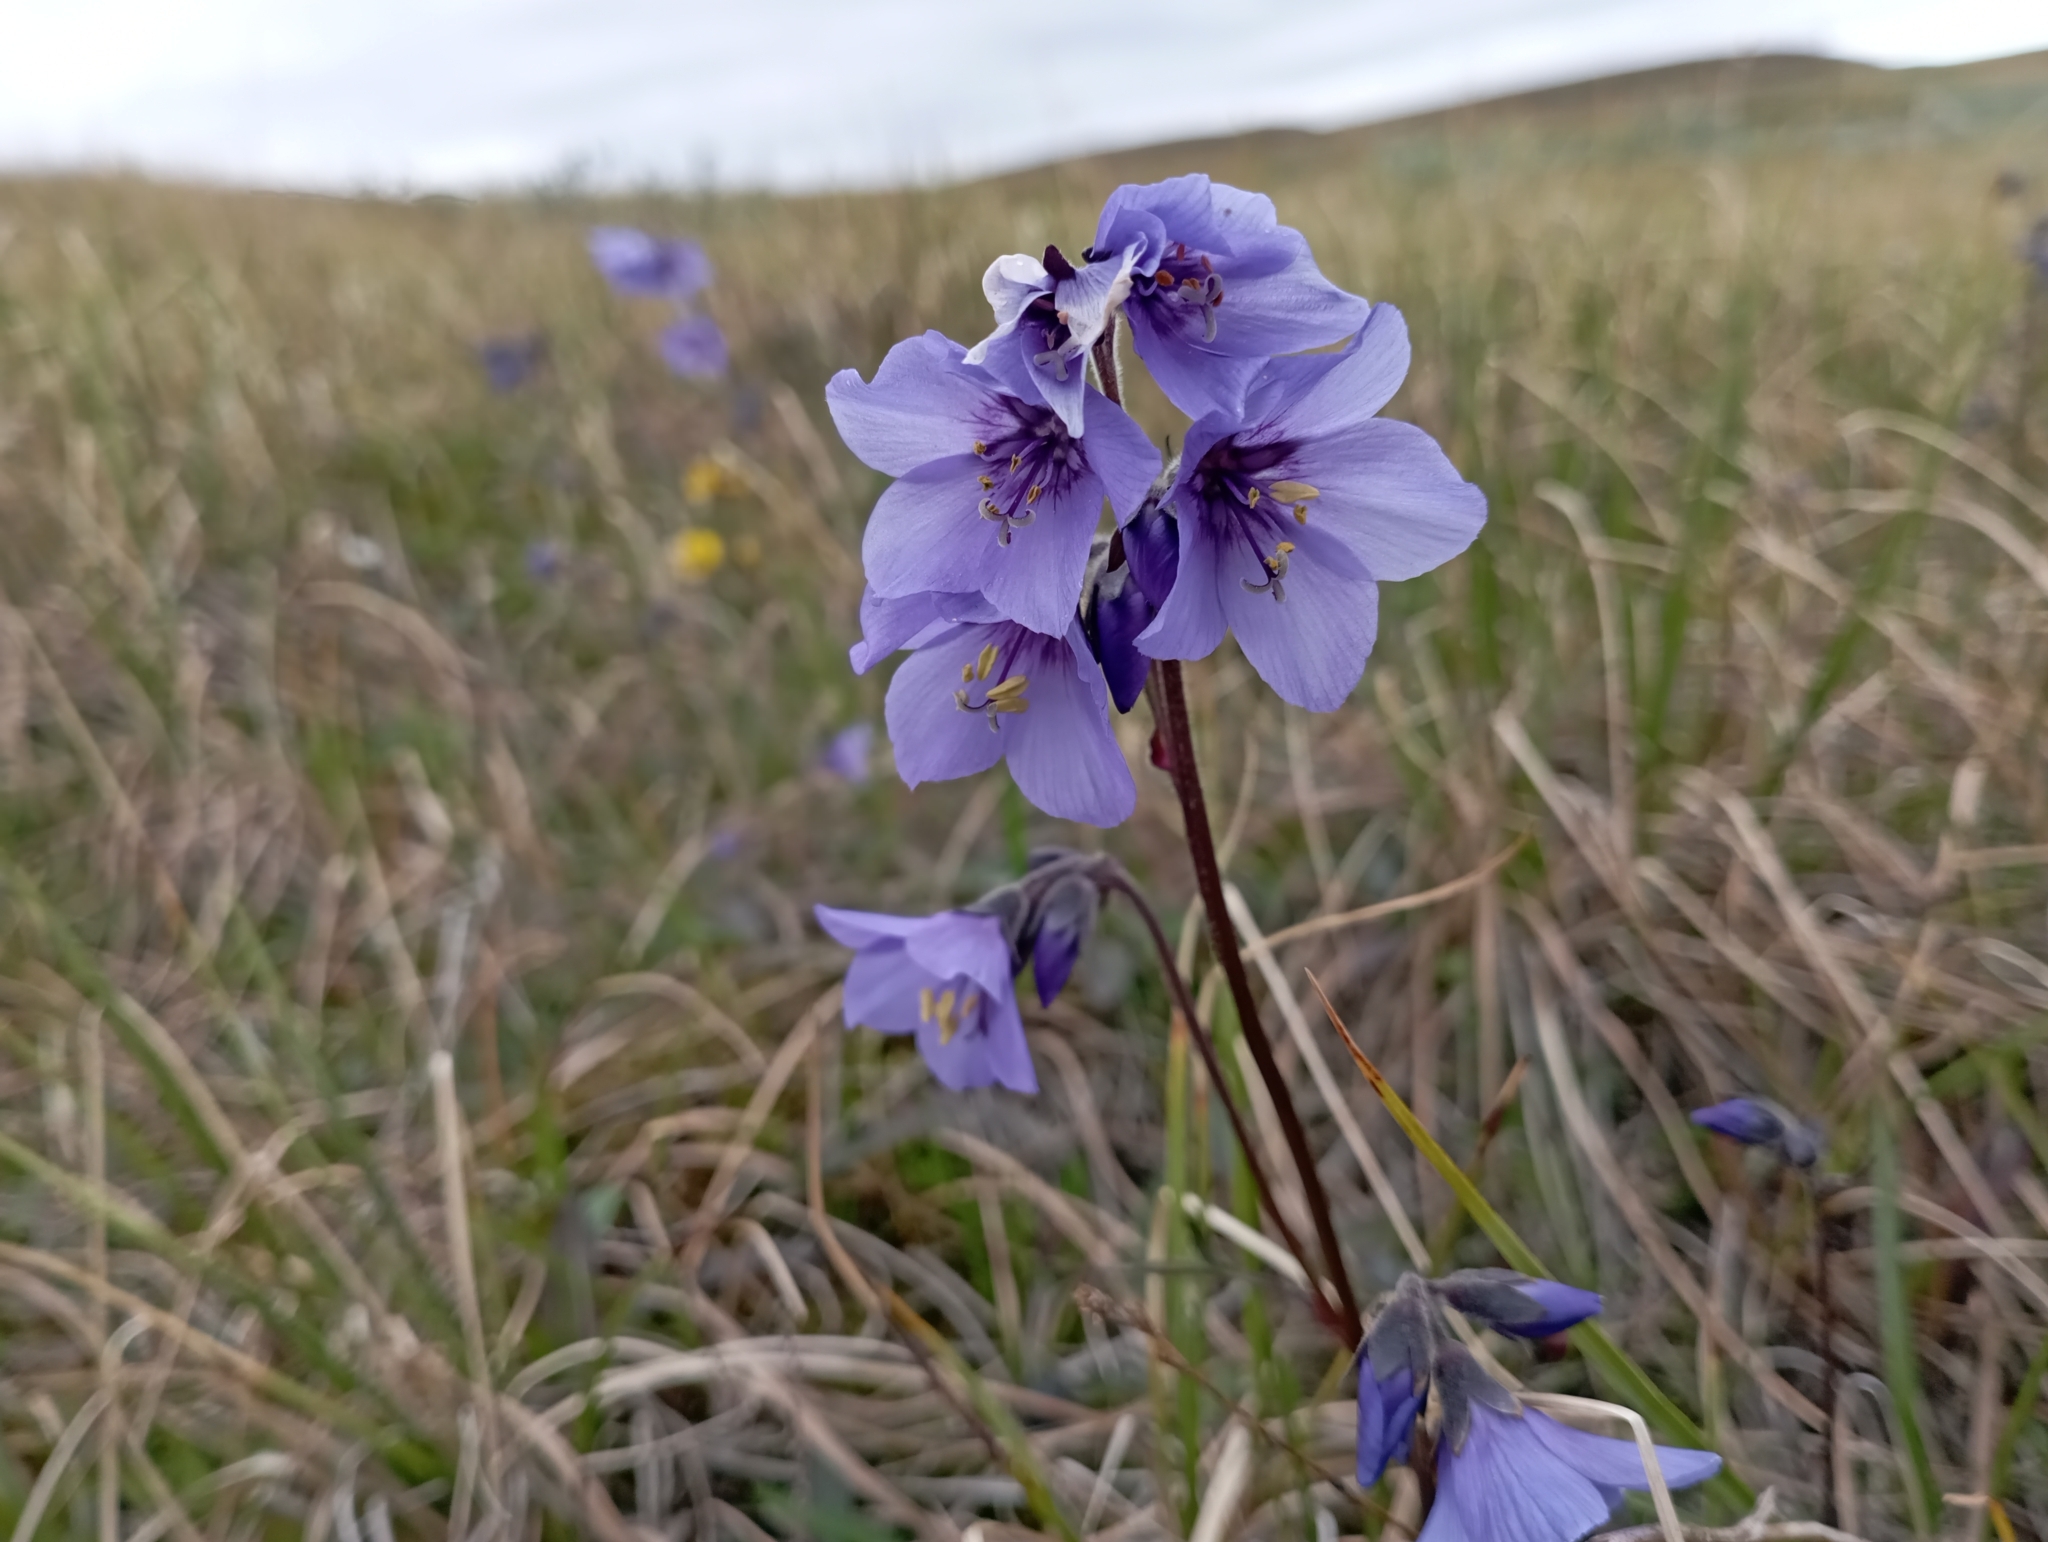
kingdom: Plantae
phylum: Tracheophyta
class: Magnoliopsida
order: Ericales
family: Polemoniaceae
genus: Polemonium
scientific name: Polemonium acutiflorum
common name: Tall jacob's-ladder
